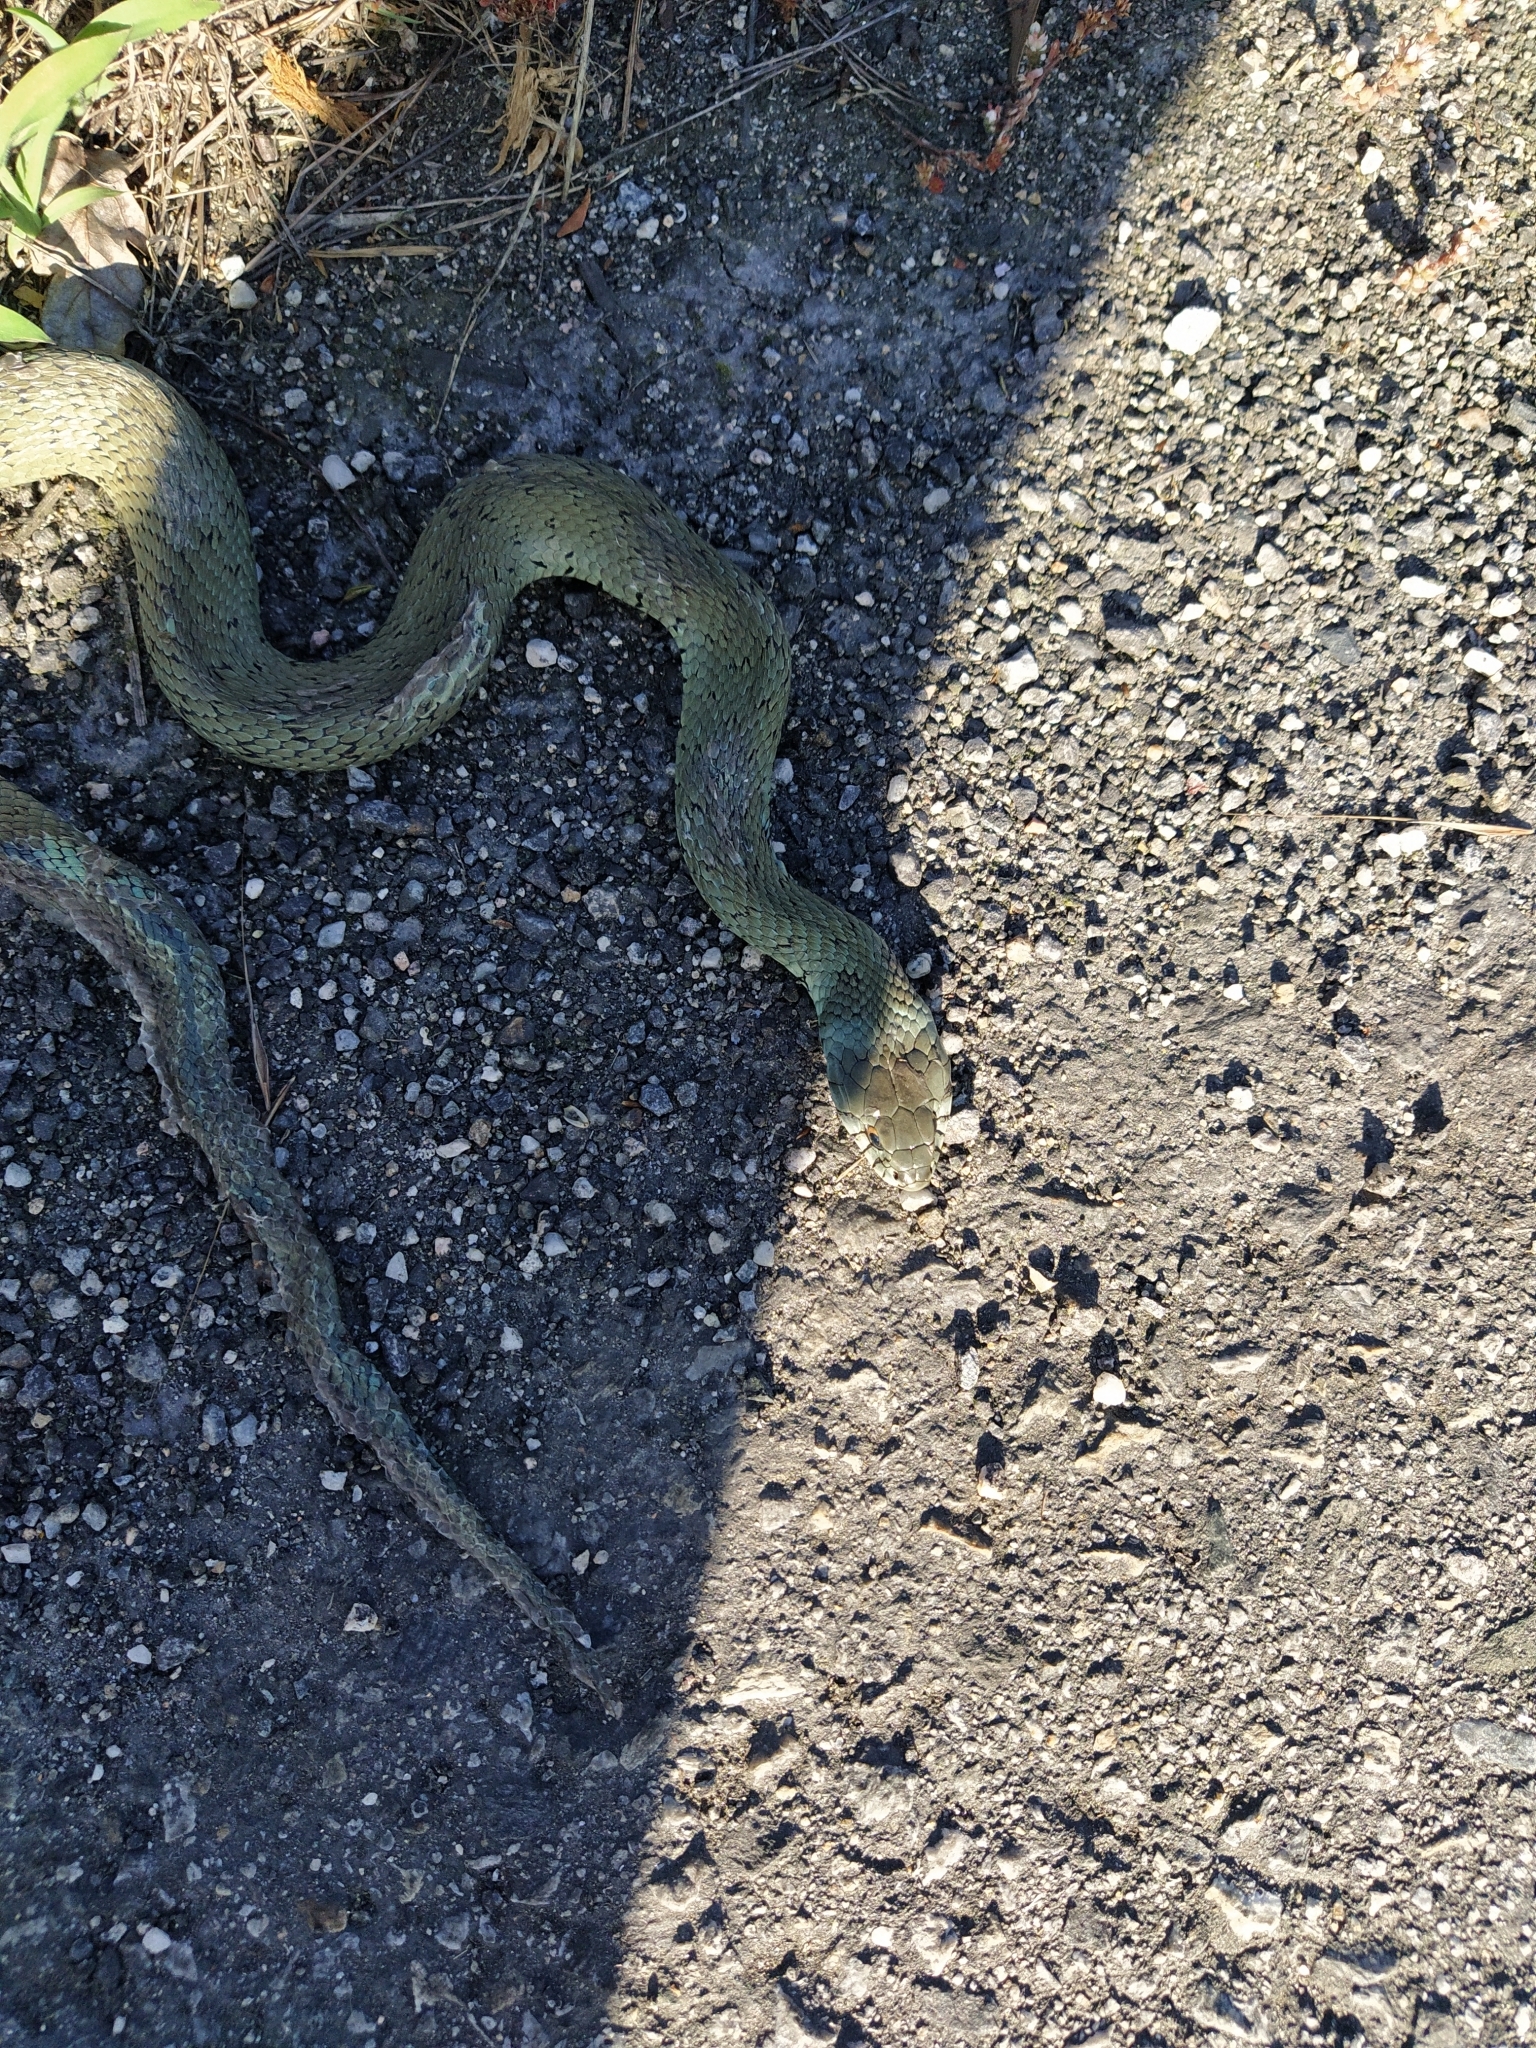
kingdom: Animalia
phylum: Chordata
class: Squamata
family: Colubridae
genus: Natrix
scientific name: Natrix astreptophora
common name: Red-eyed grass snake
